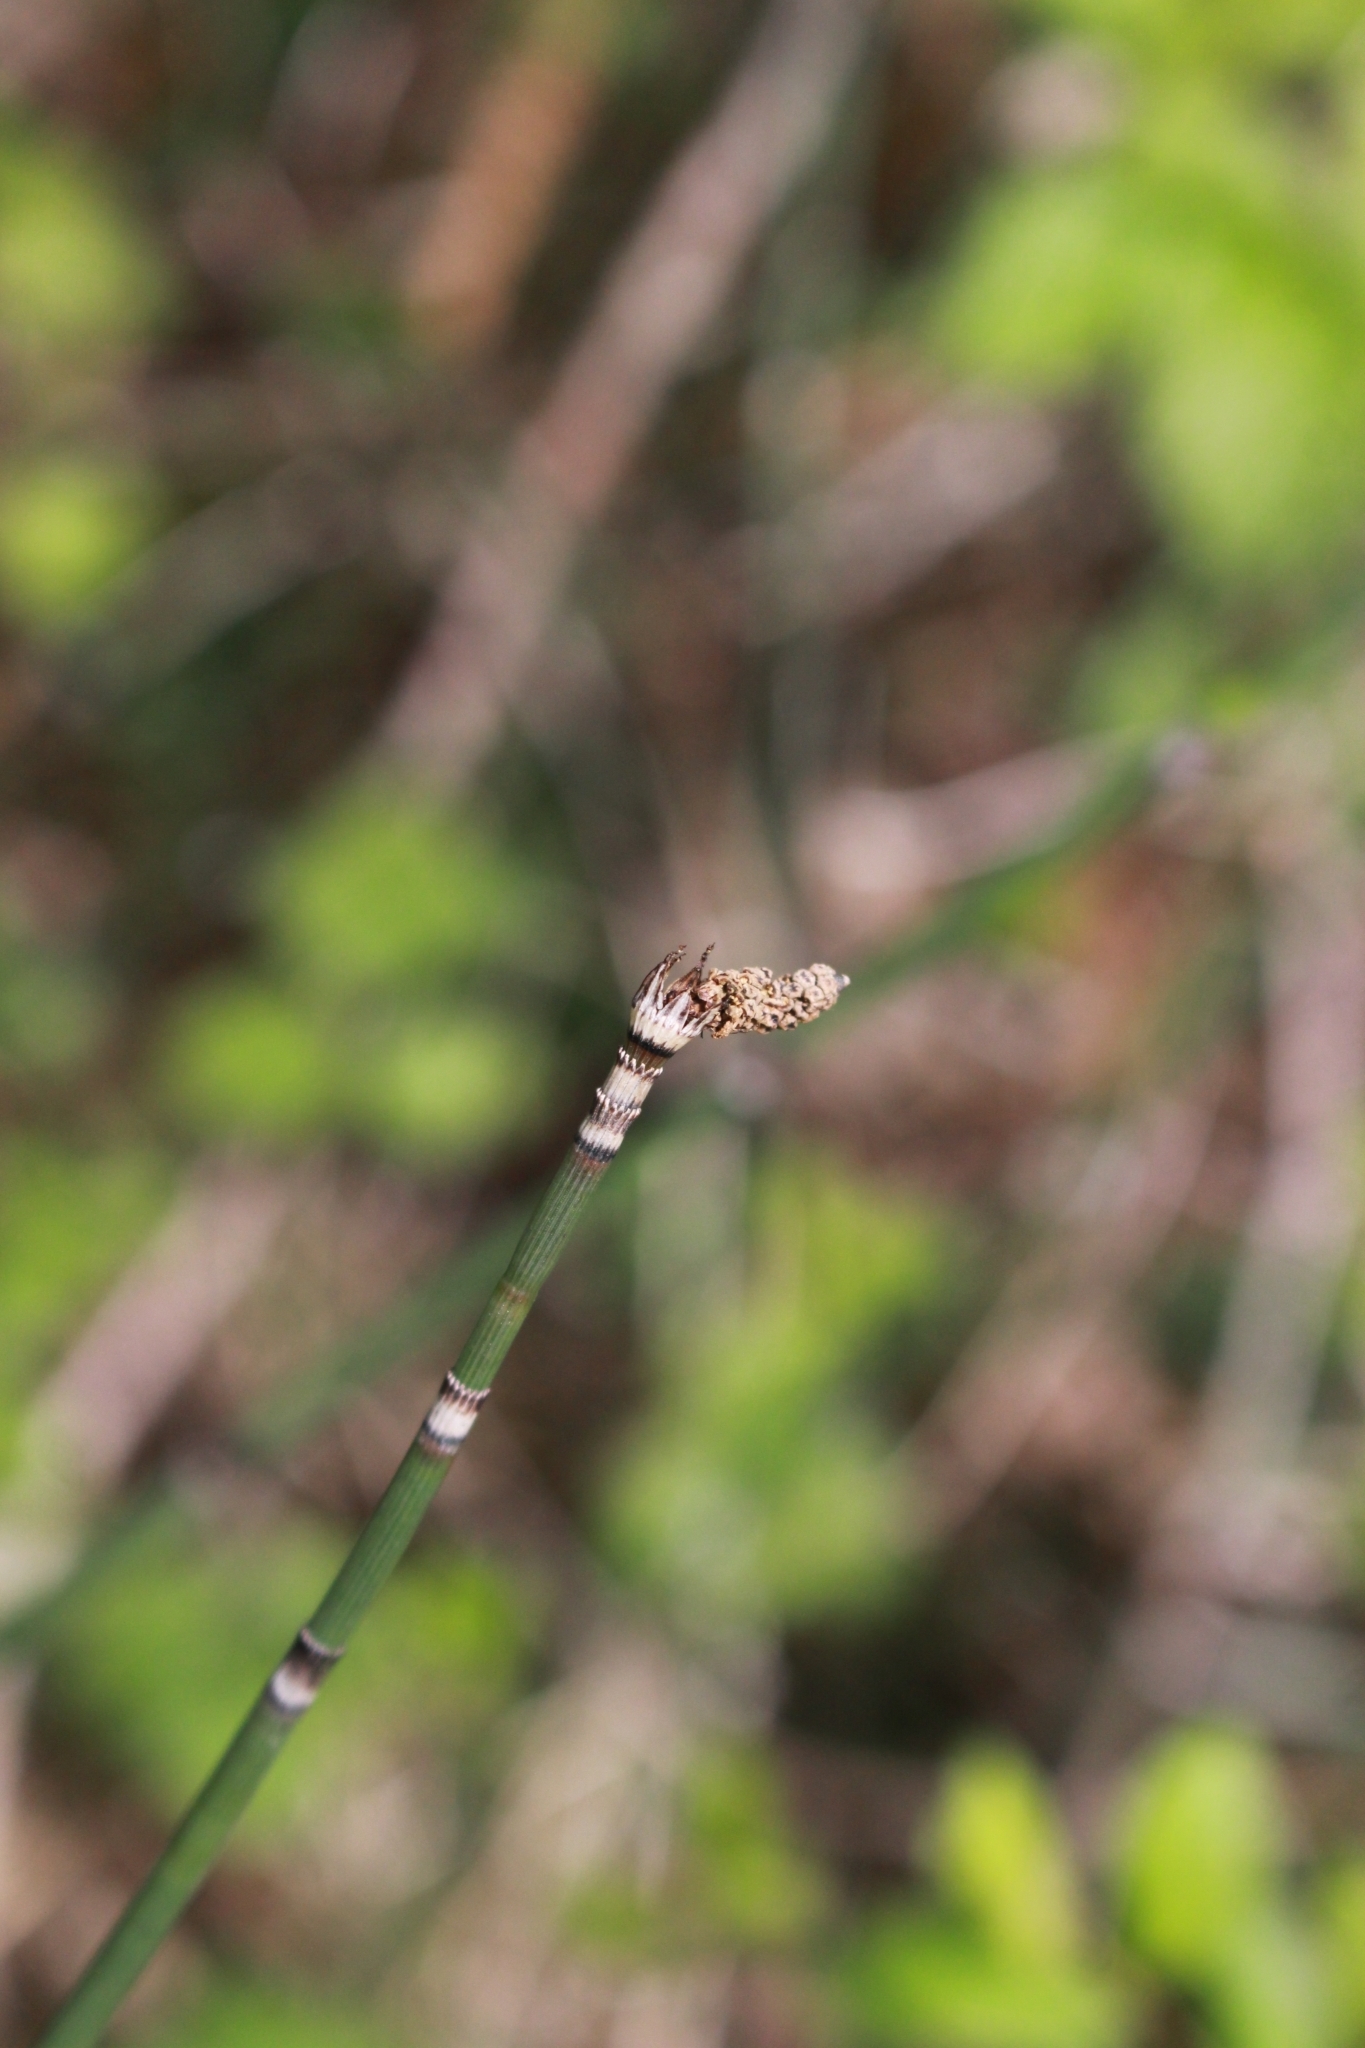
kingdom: Plantae
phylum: Tracheophyta
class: Polypodiopsida
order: Equisetales
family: Equisetaceae
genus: Equisetum
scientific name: Equisetum hyemale
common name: Rough horsetail
